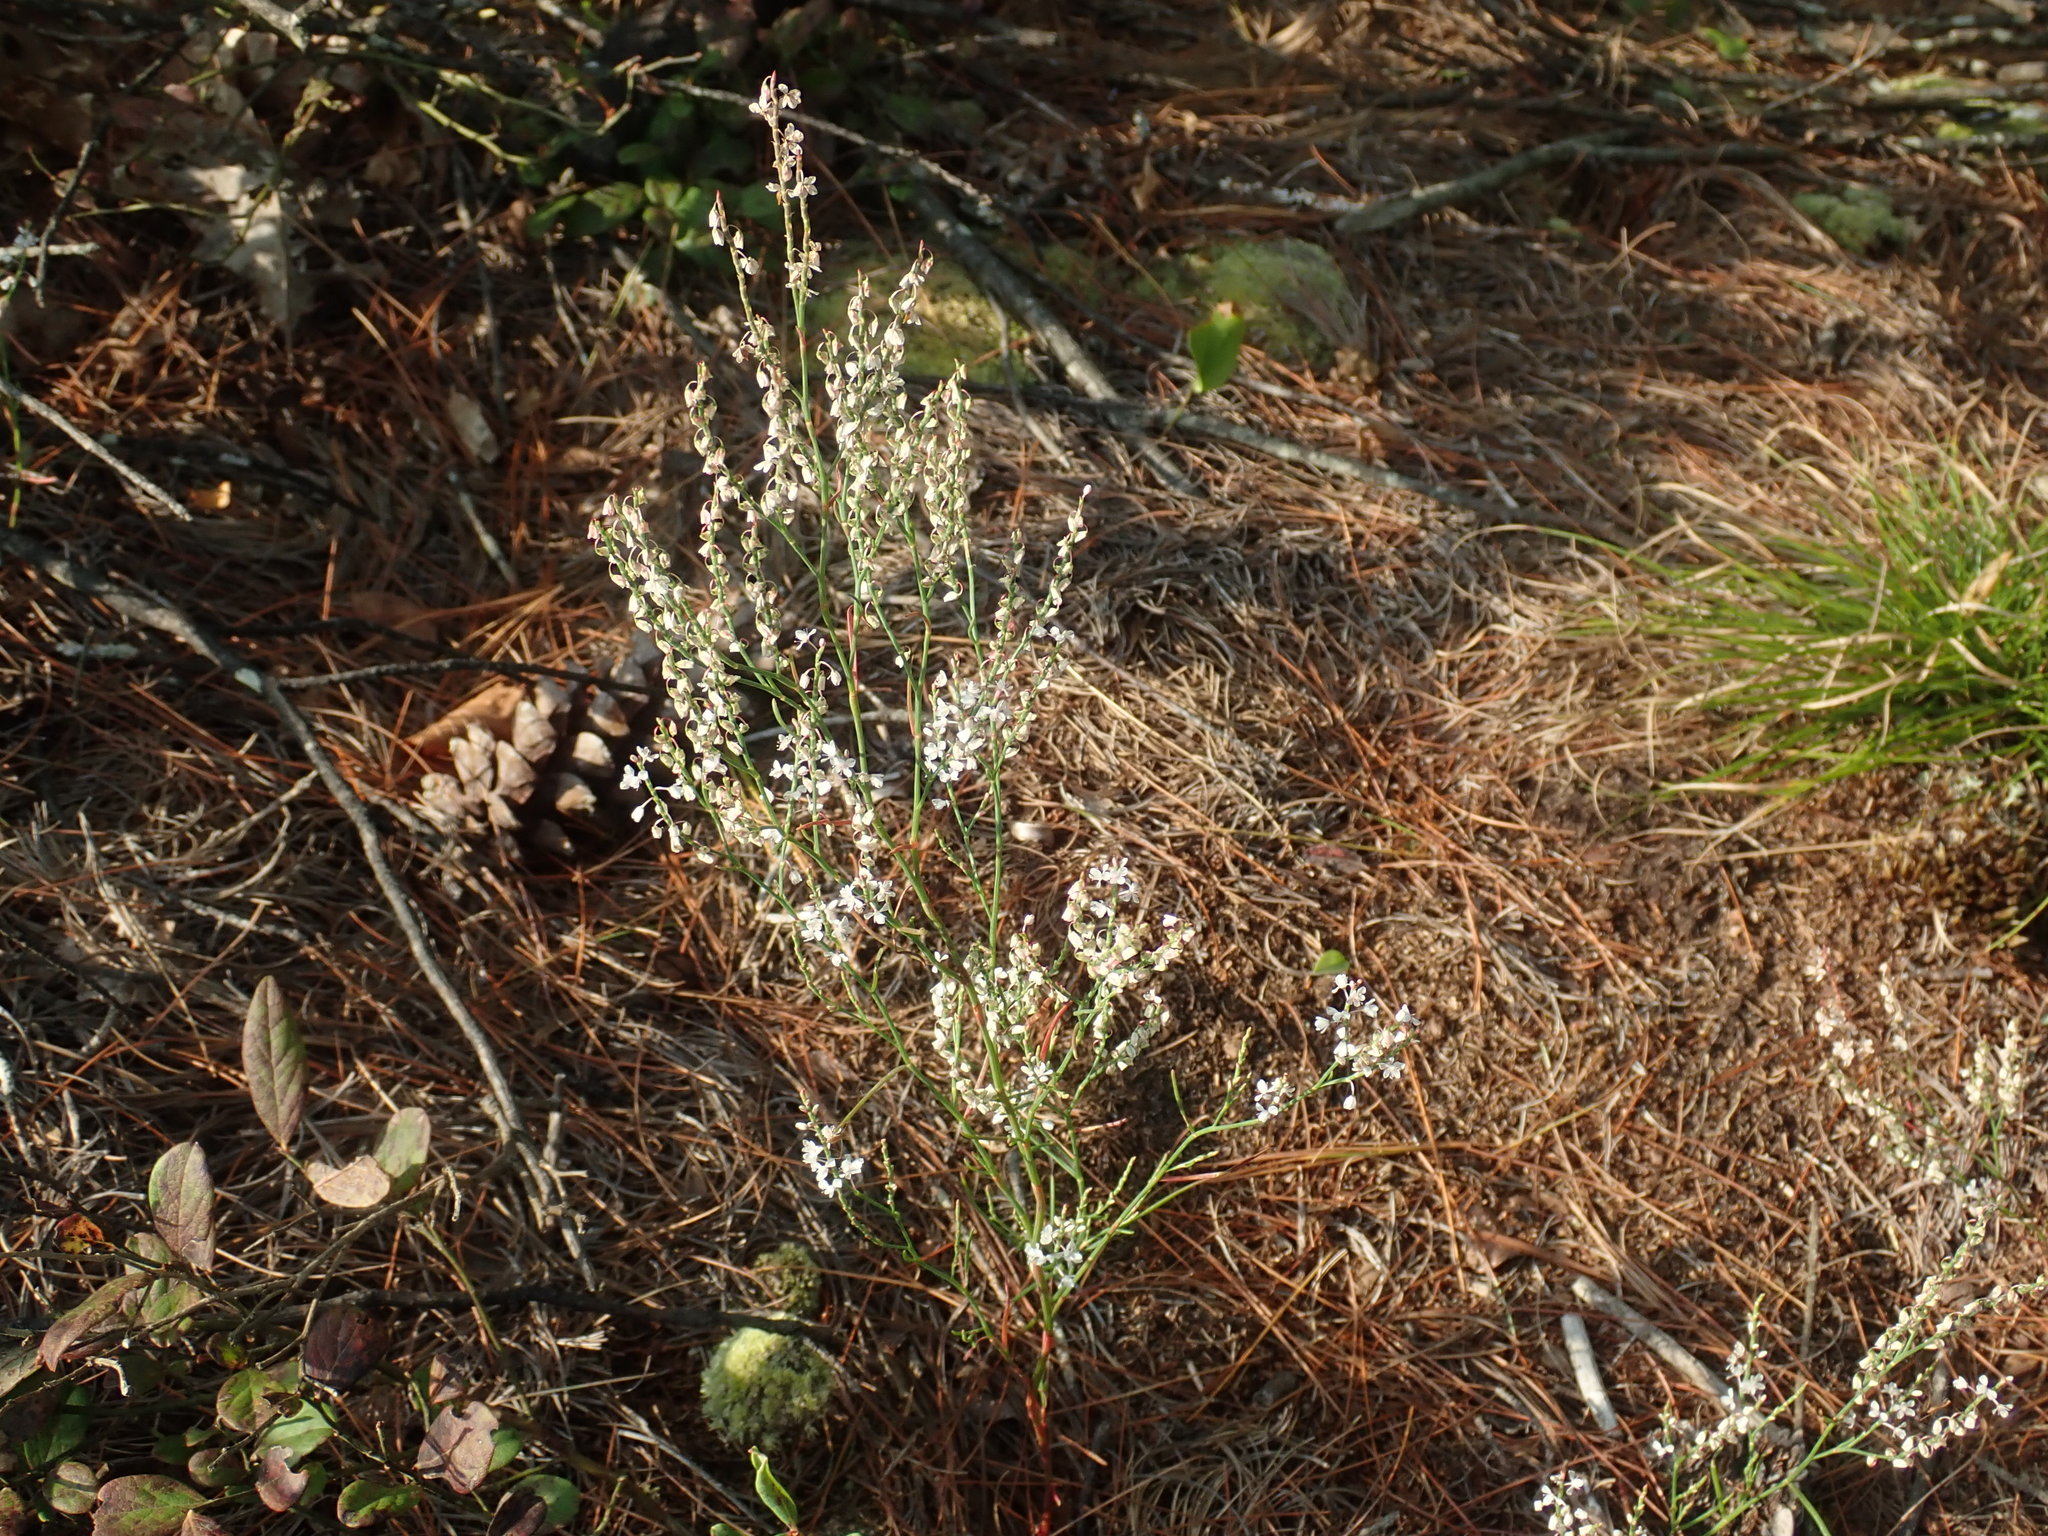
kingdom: Plantae
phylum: Tracheophyta
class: Magnoliopsida
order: Caryophyllales
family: Polygonaceae
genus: Polygonella
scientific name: Polygonella articulata
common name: Coastal jointweed
